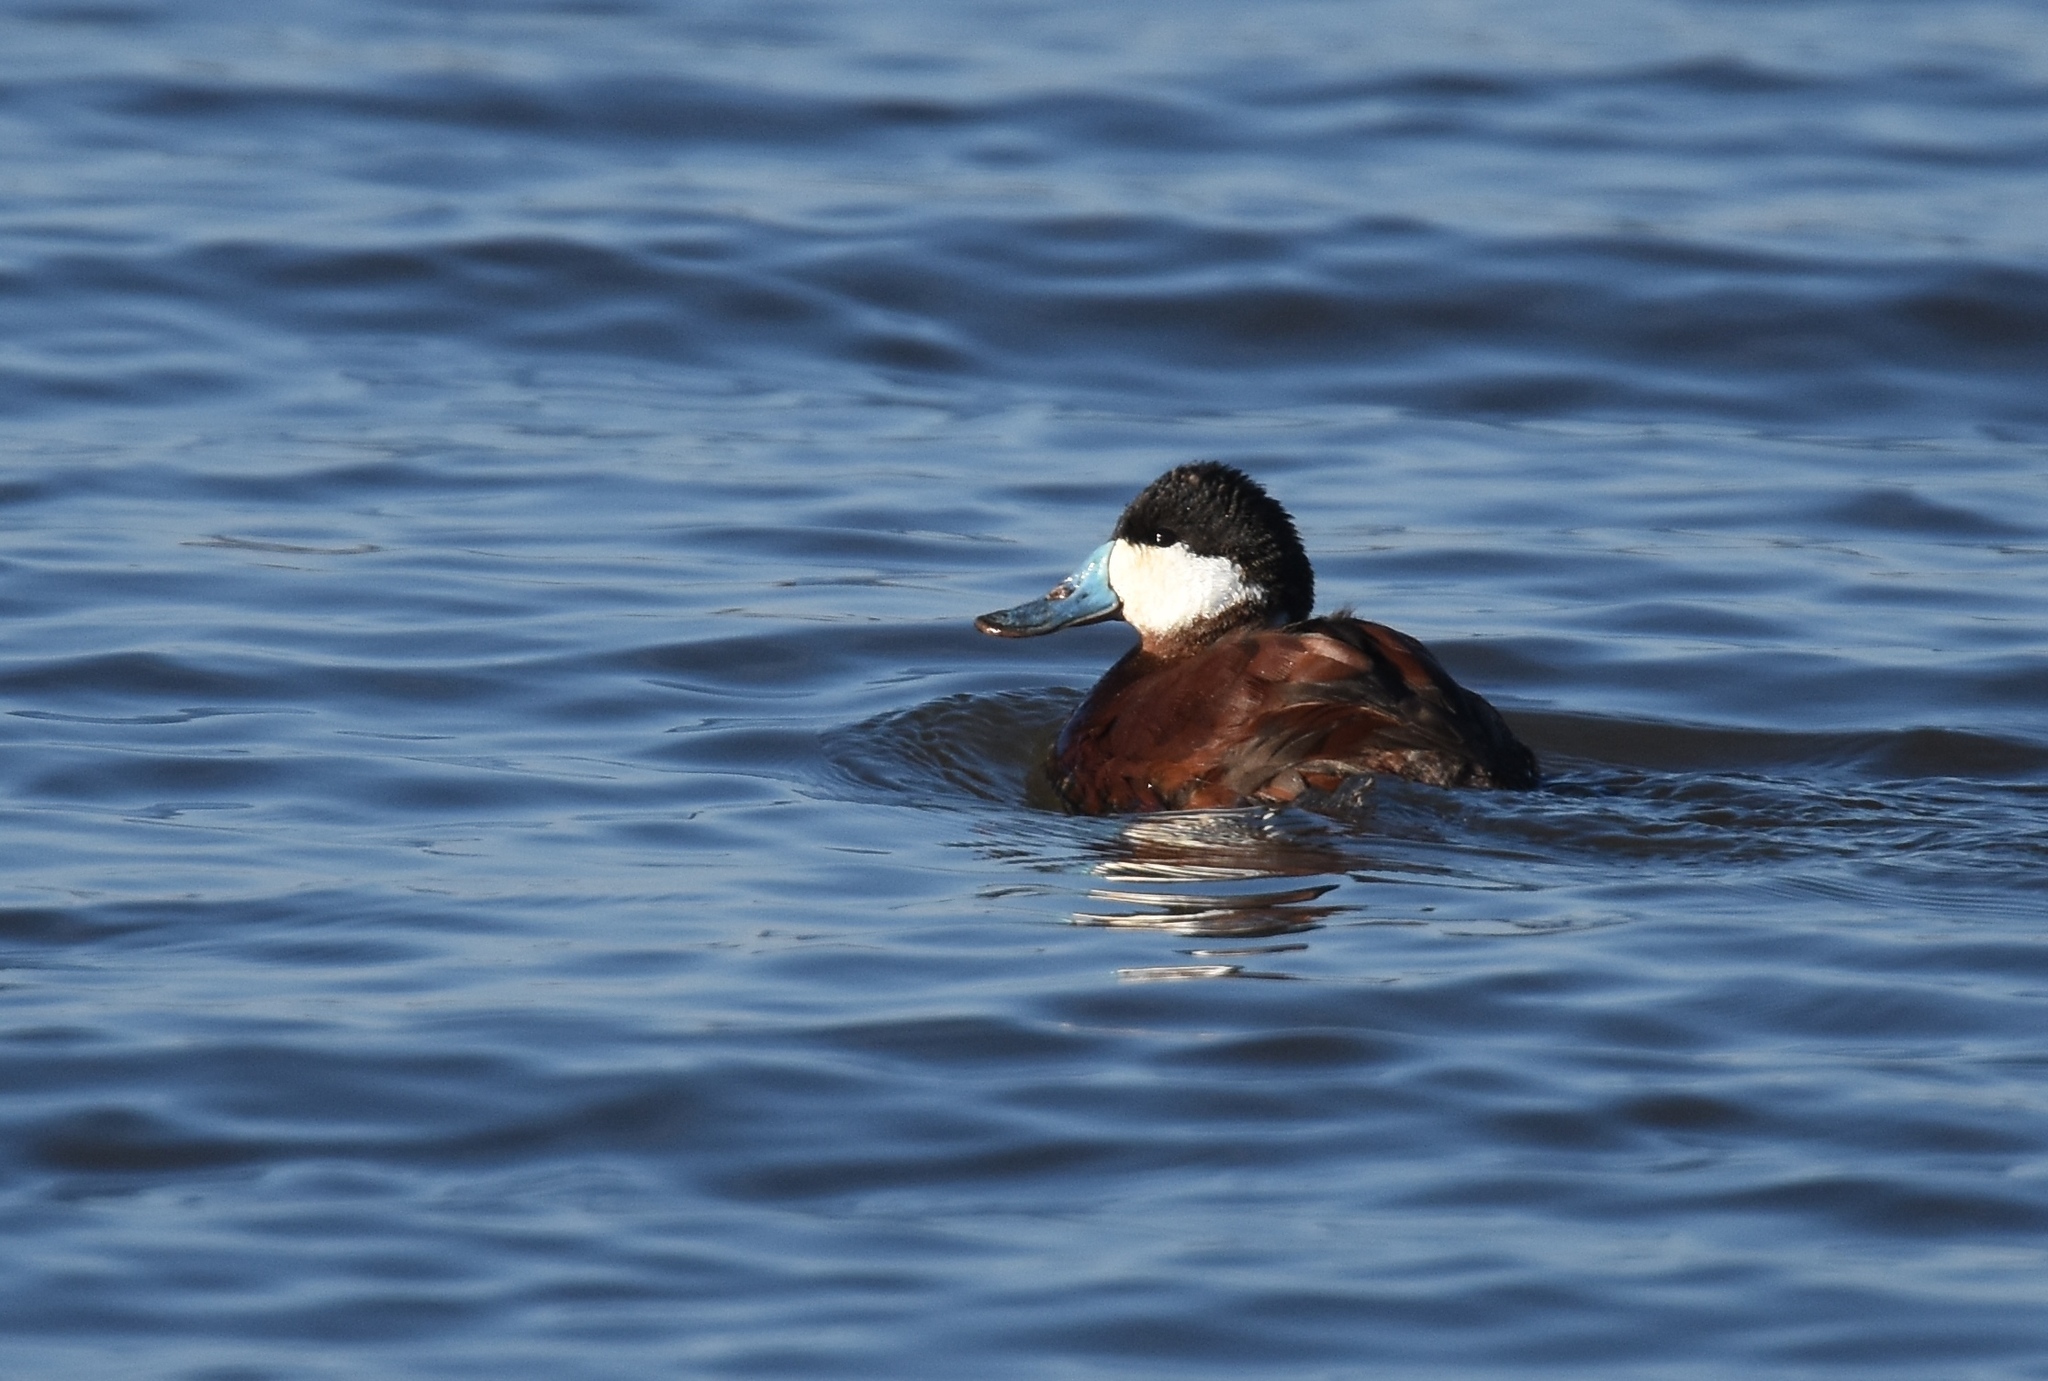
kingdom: Animalia
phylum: Chordata
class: Aves
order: Anseriformes
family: Anatidae
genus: Oxyura
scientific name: Oxyura jamaicensis
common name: Ruddy duck
